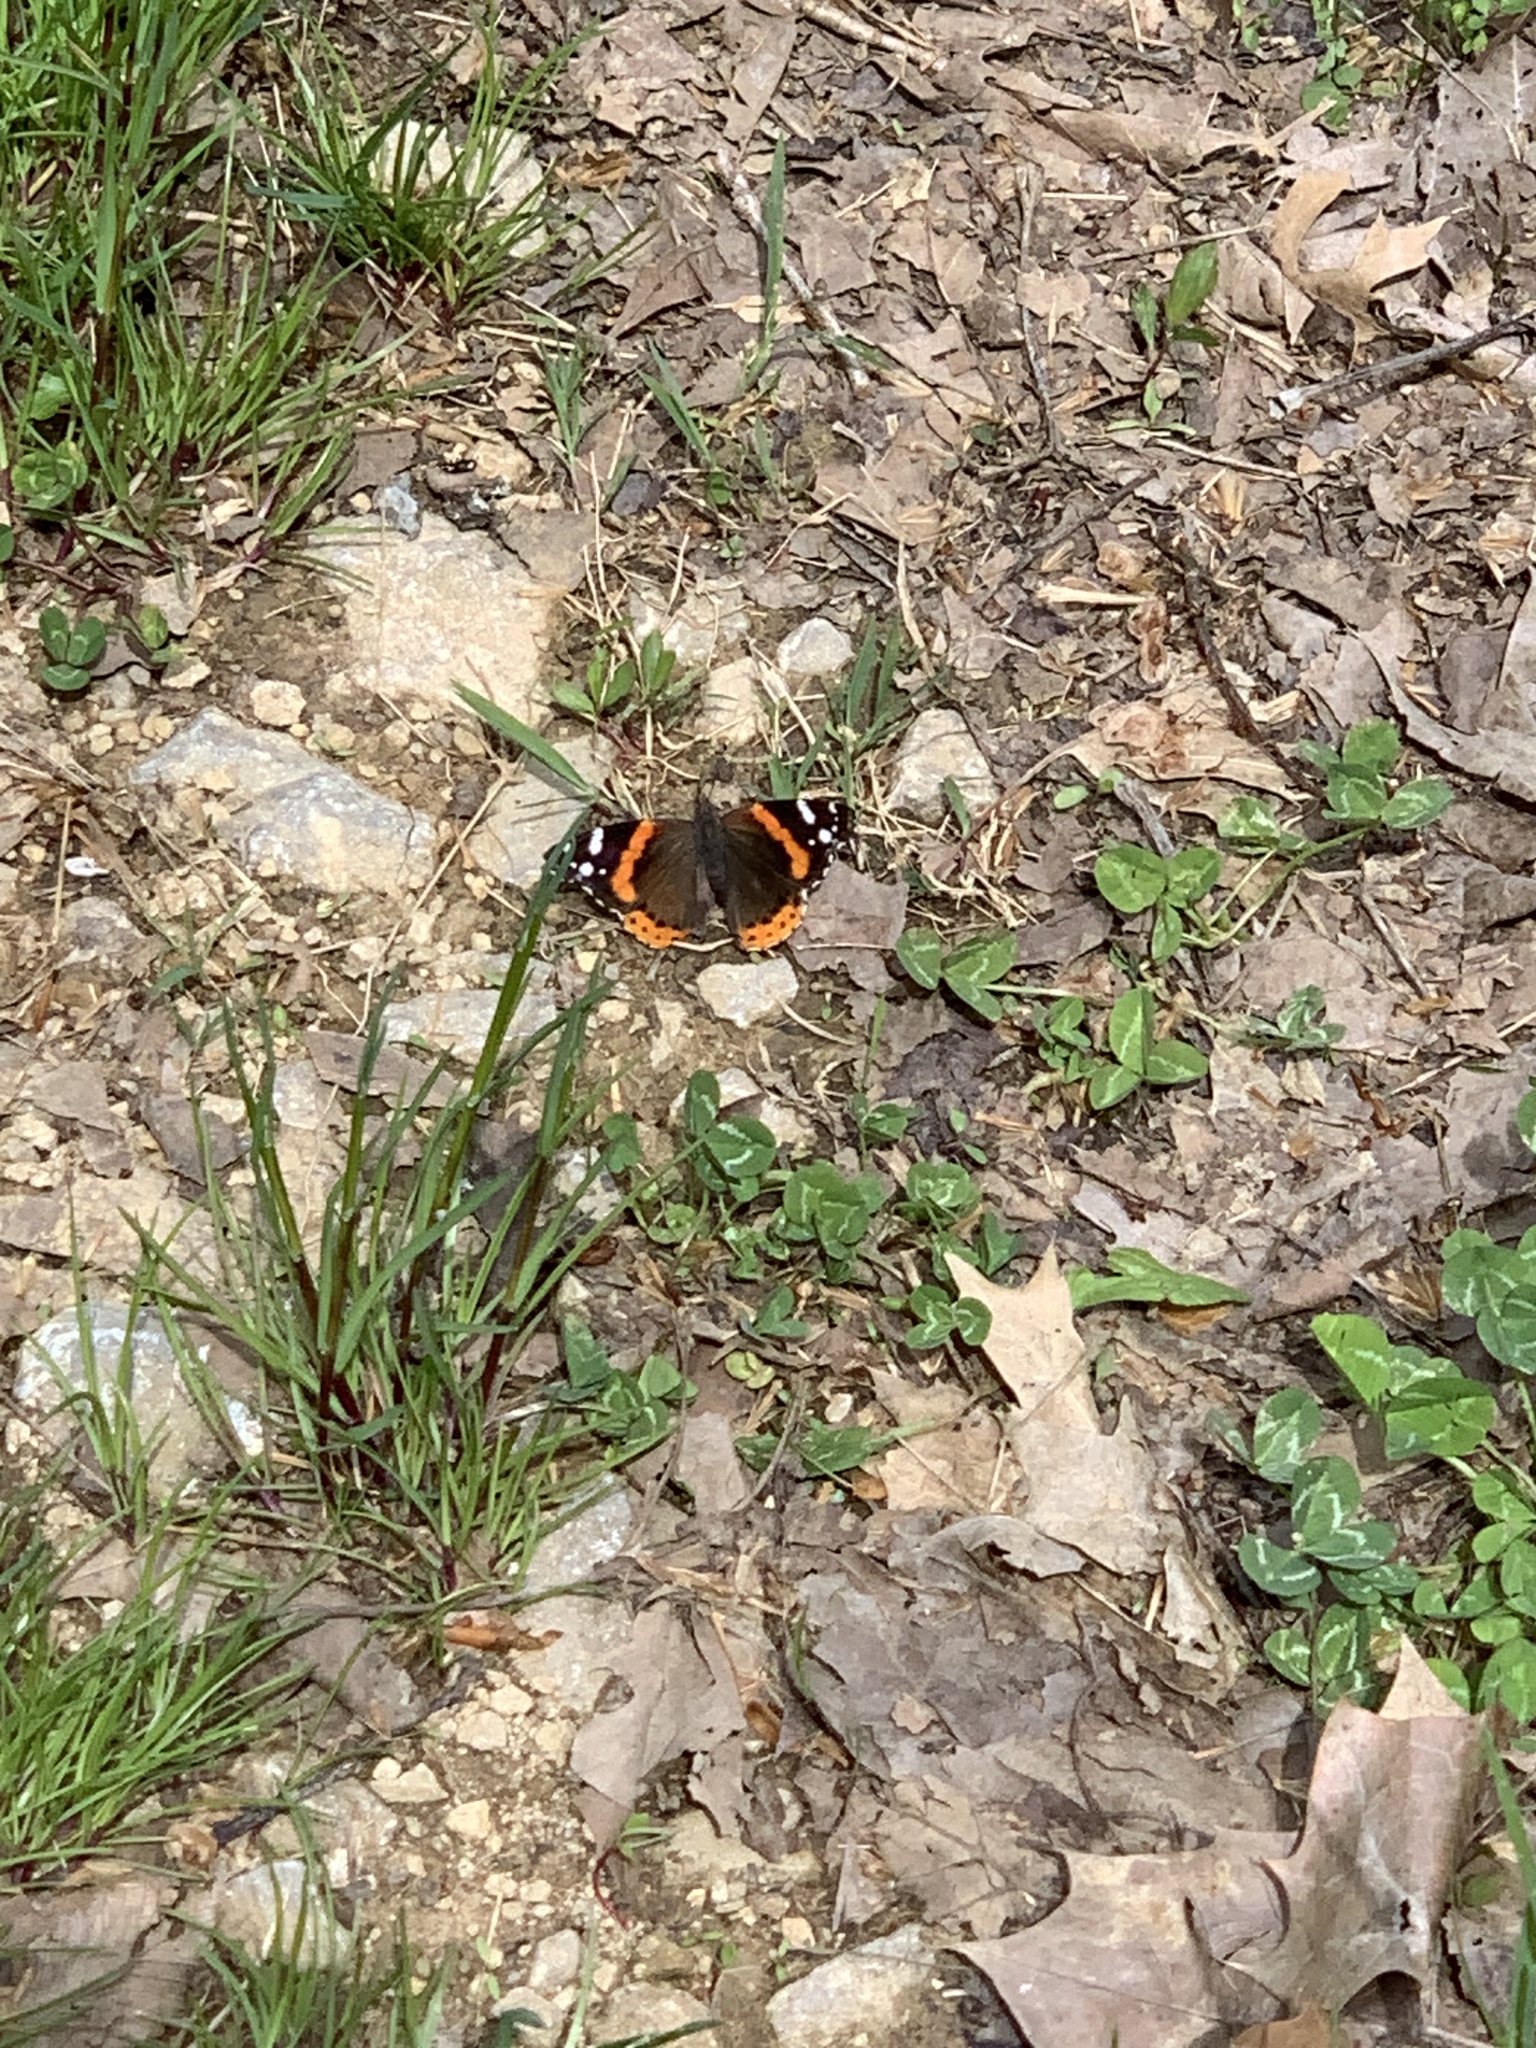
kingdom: Animalia
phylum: Arthropoda
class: Insecta
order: Lepidoptera
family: Nymphalidae
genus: Vanessa
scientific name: Vanessa atalanta
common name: Red admiral
